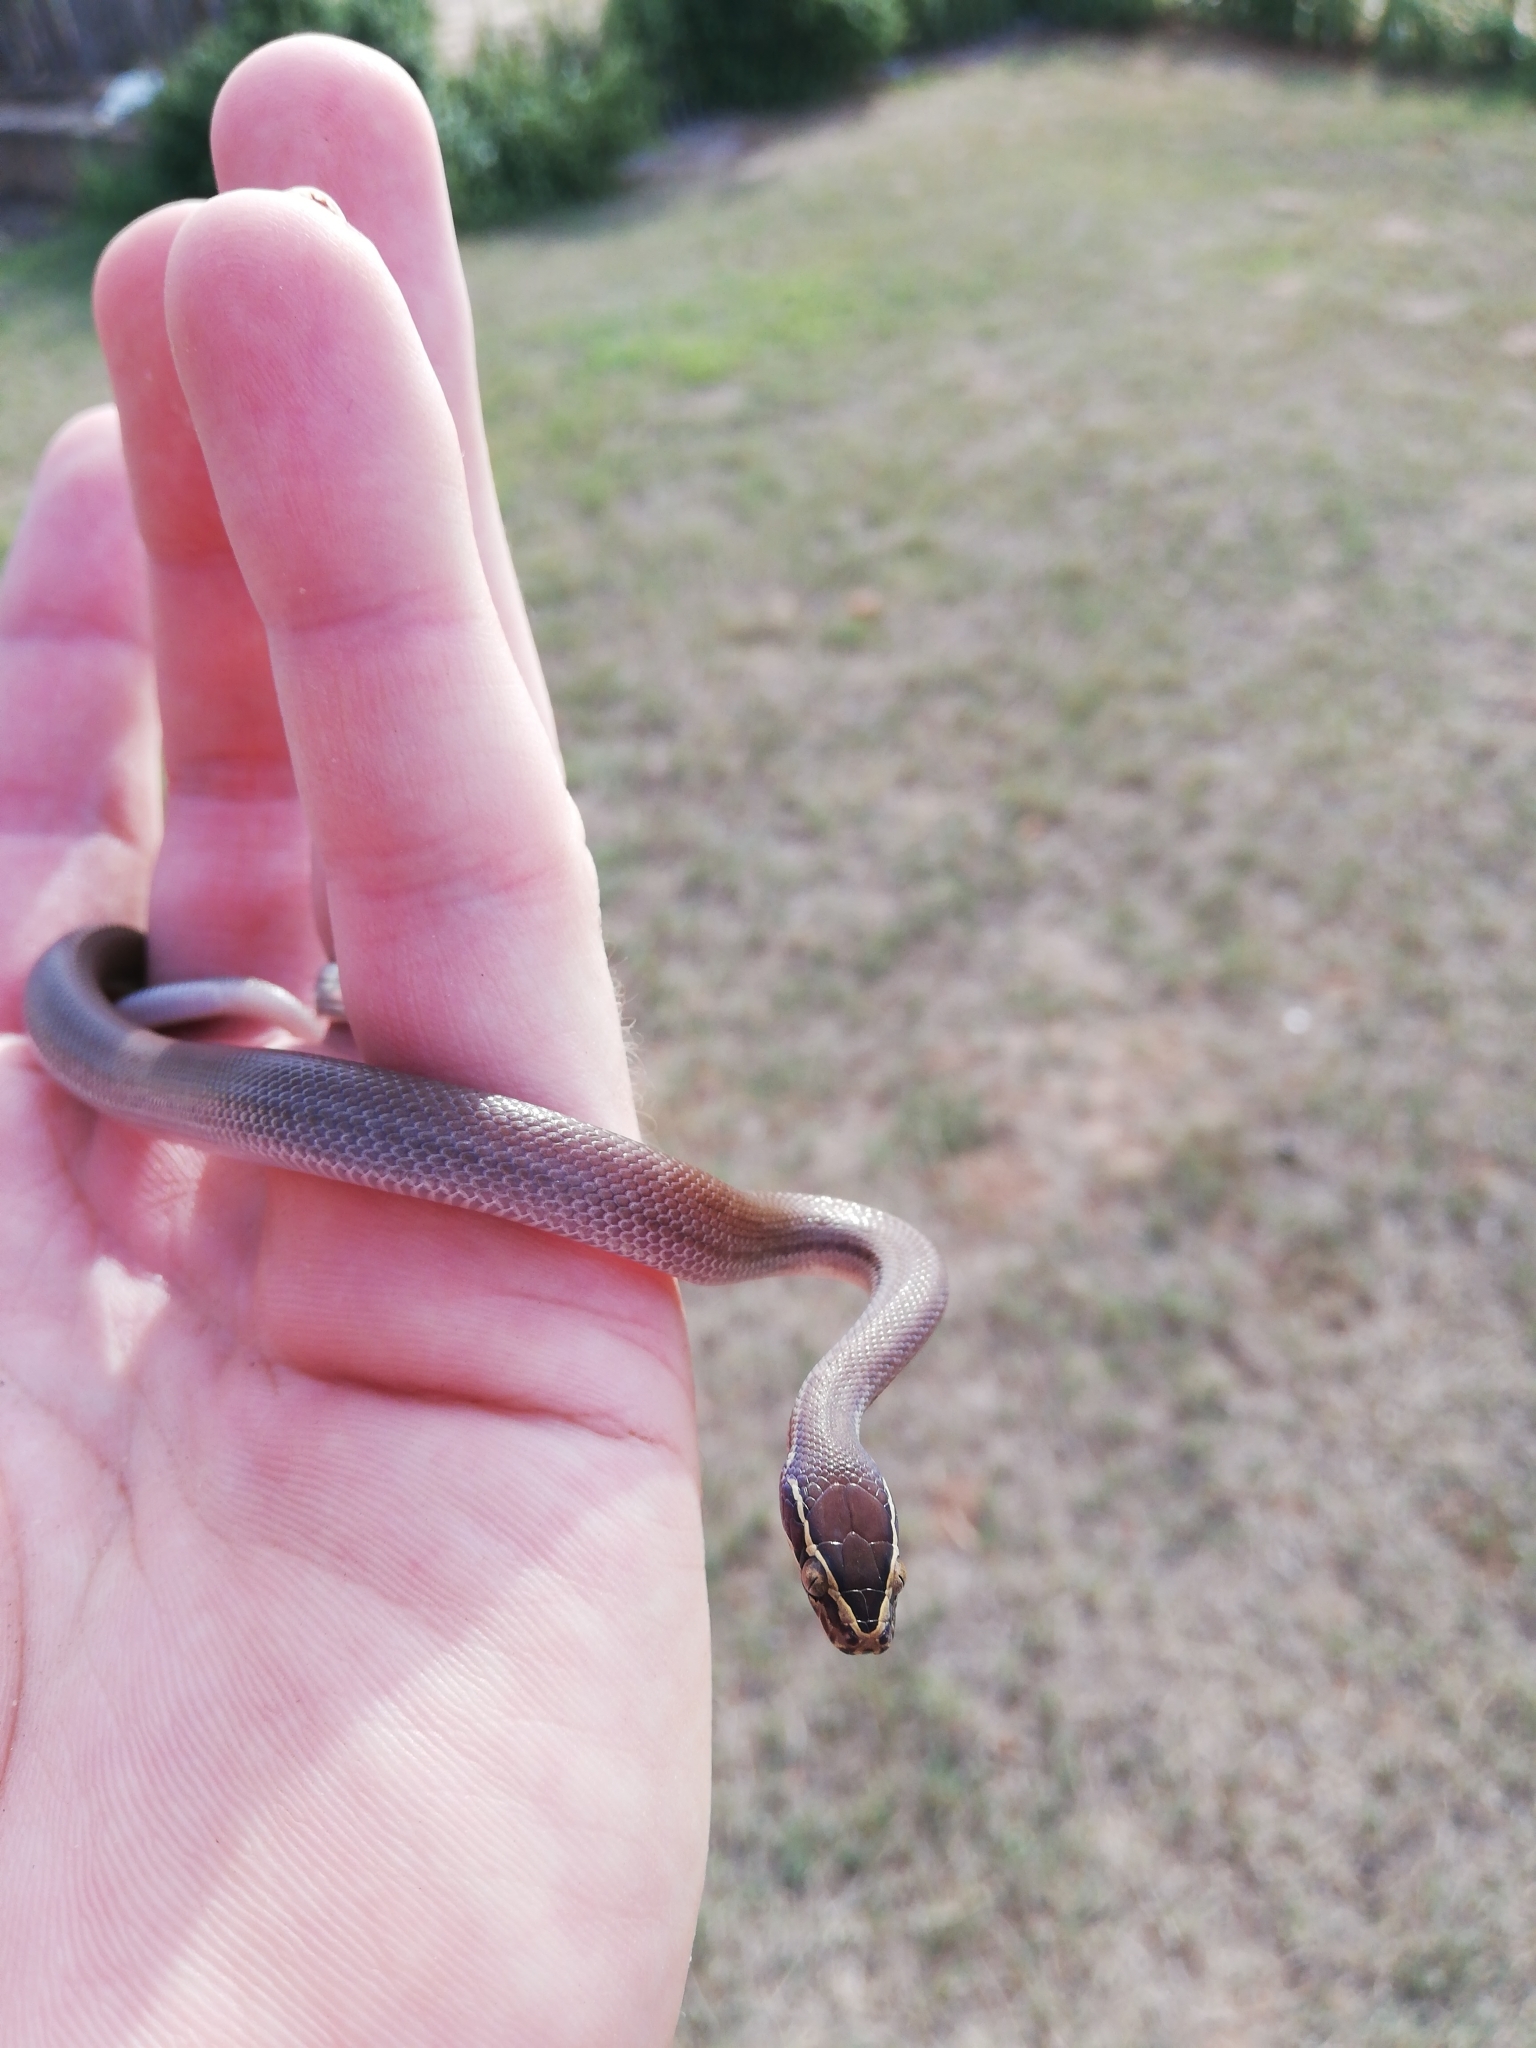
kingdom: Animalia
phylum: Chordata
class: Squamata
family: Lamprophiidae
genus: Boaedon
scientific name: Boaedon capensis
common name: Brown house snake
